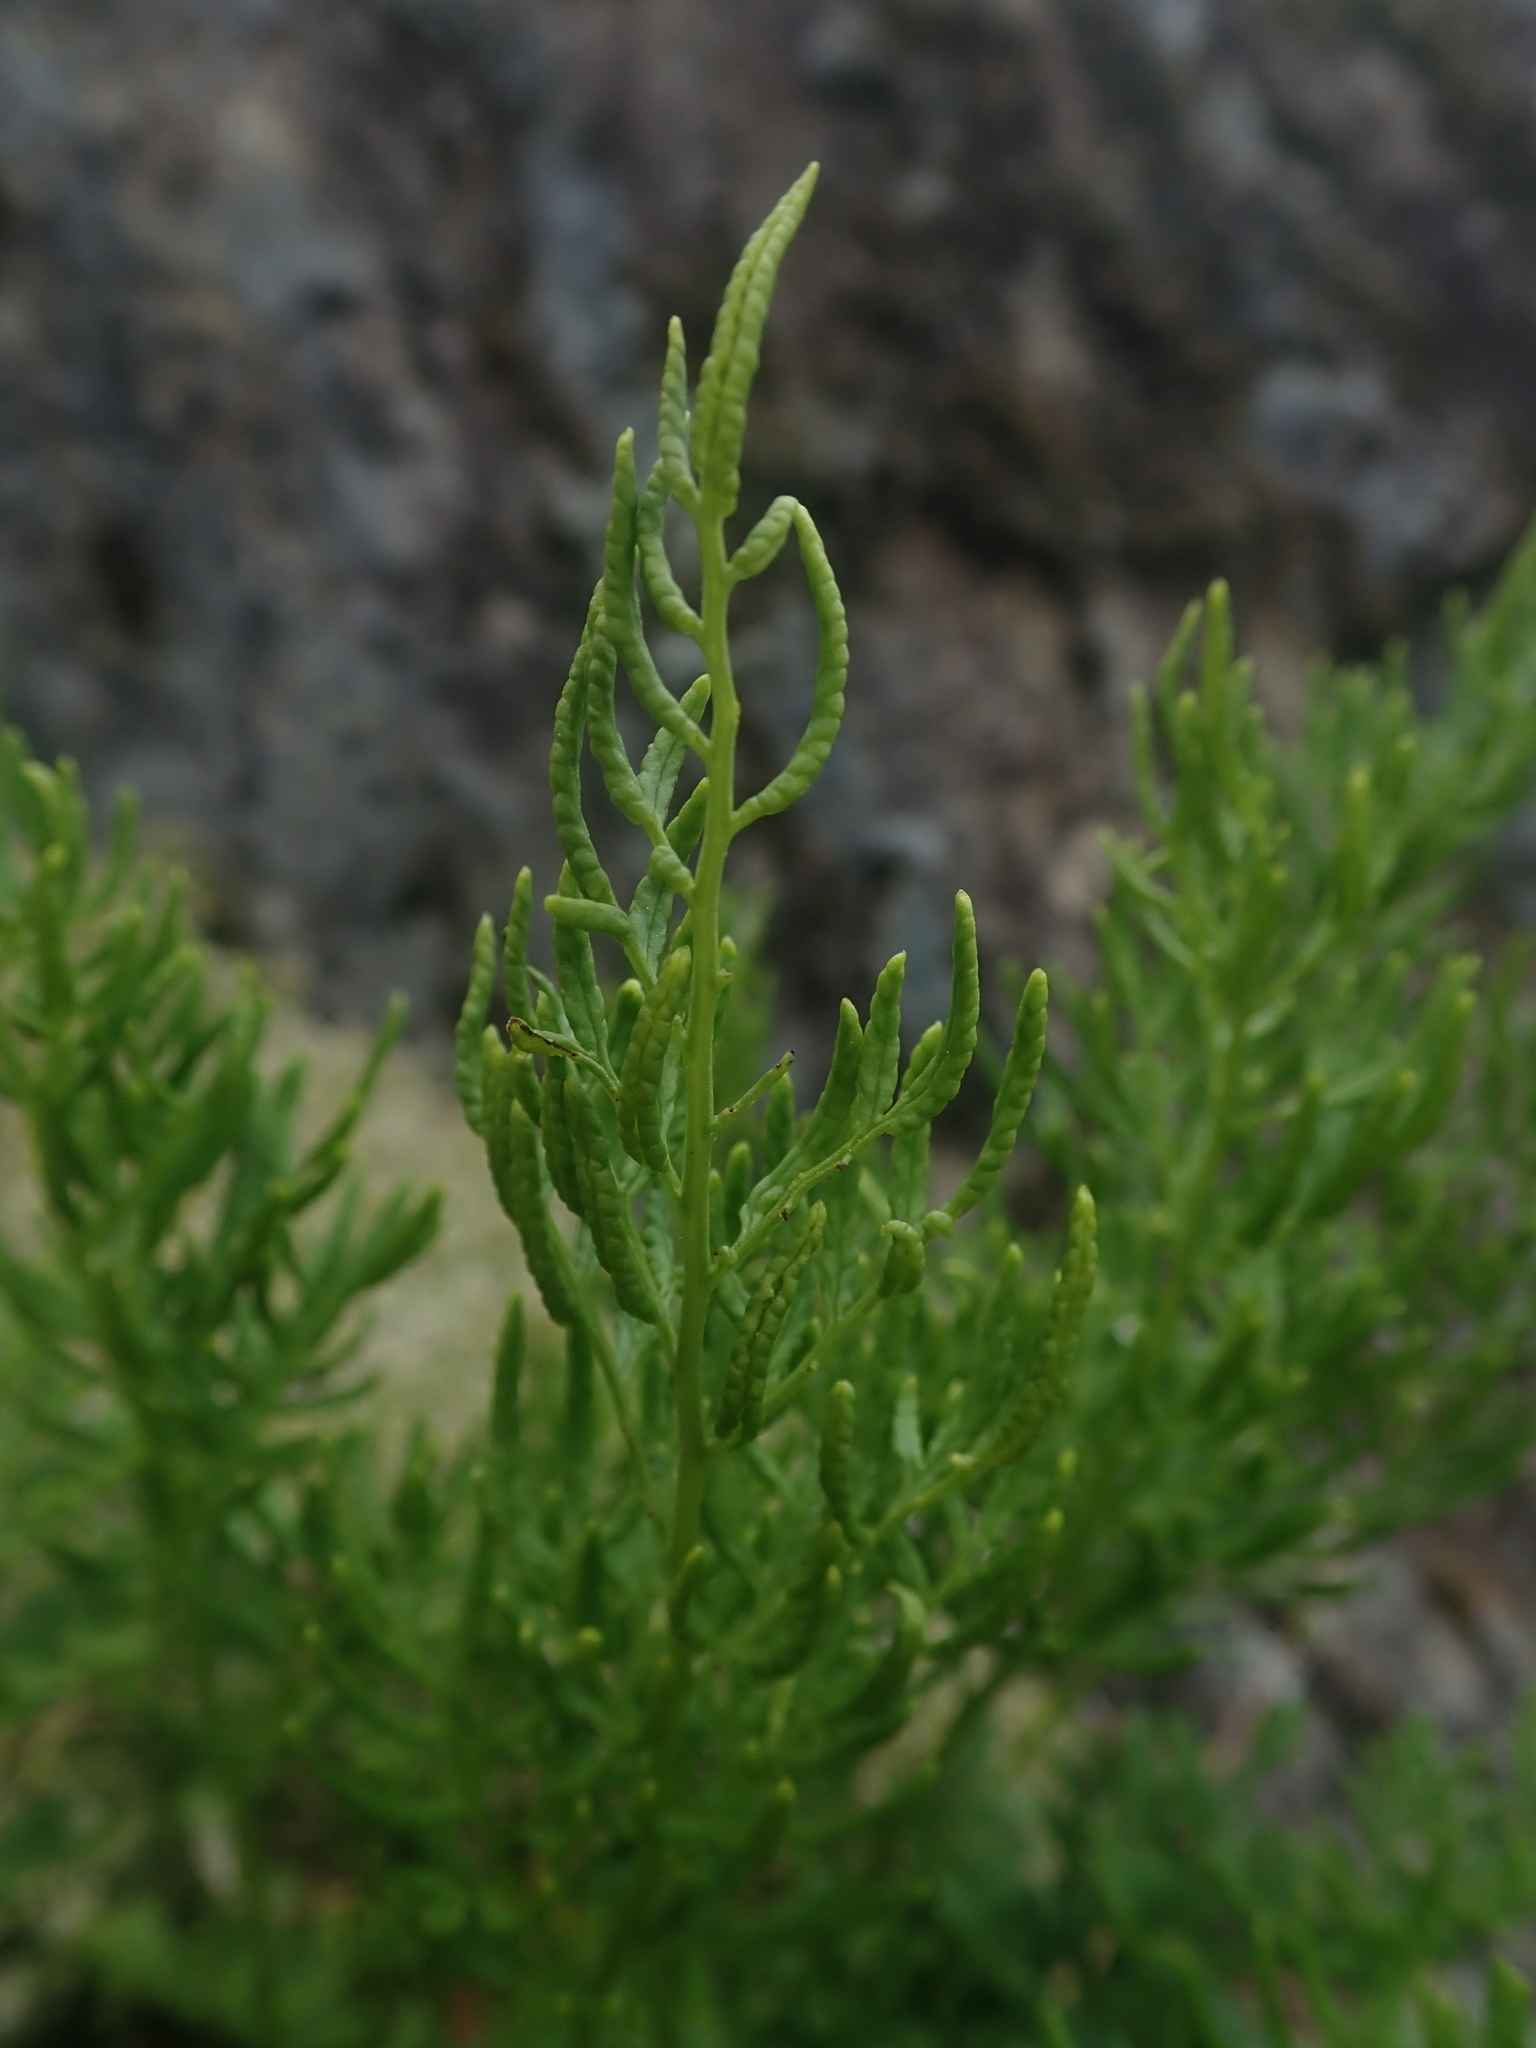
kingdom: Plantae
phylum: Tracheophyta
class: Polypodiopsida
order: Polypodiales
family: Pteridaceae
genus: Cryptogramma
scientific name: Cryptogramma acrostichoides
